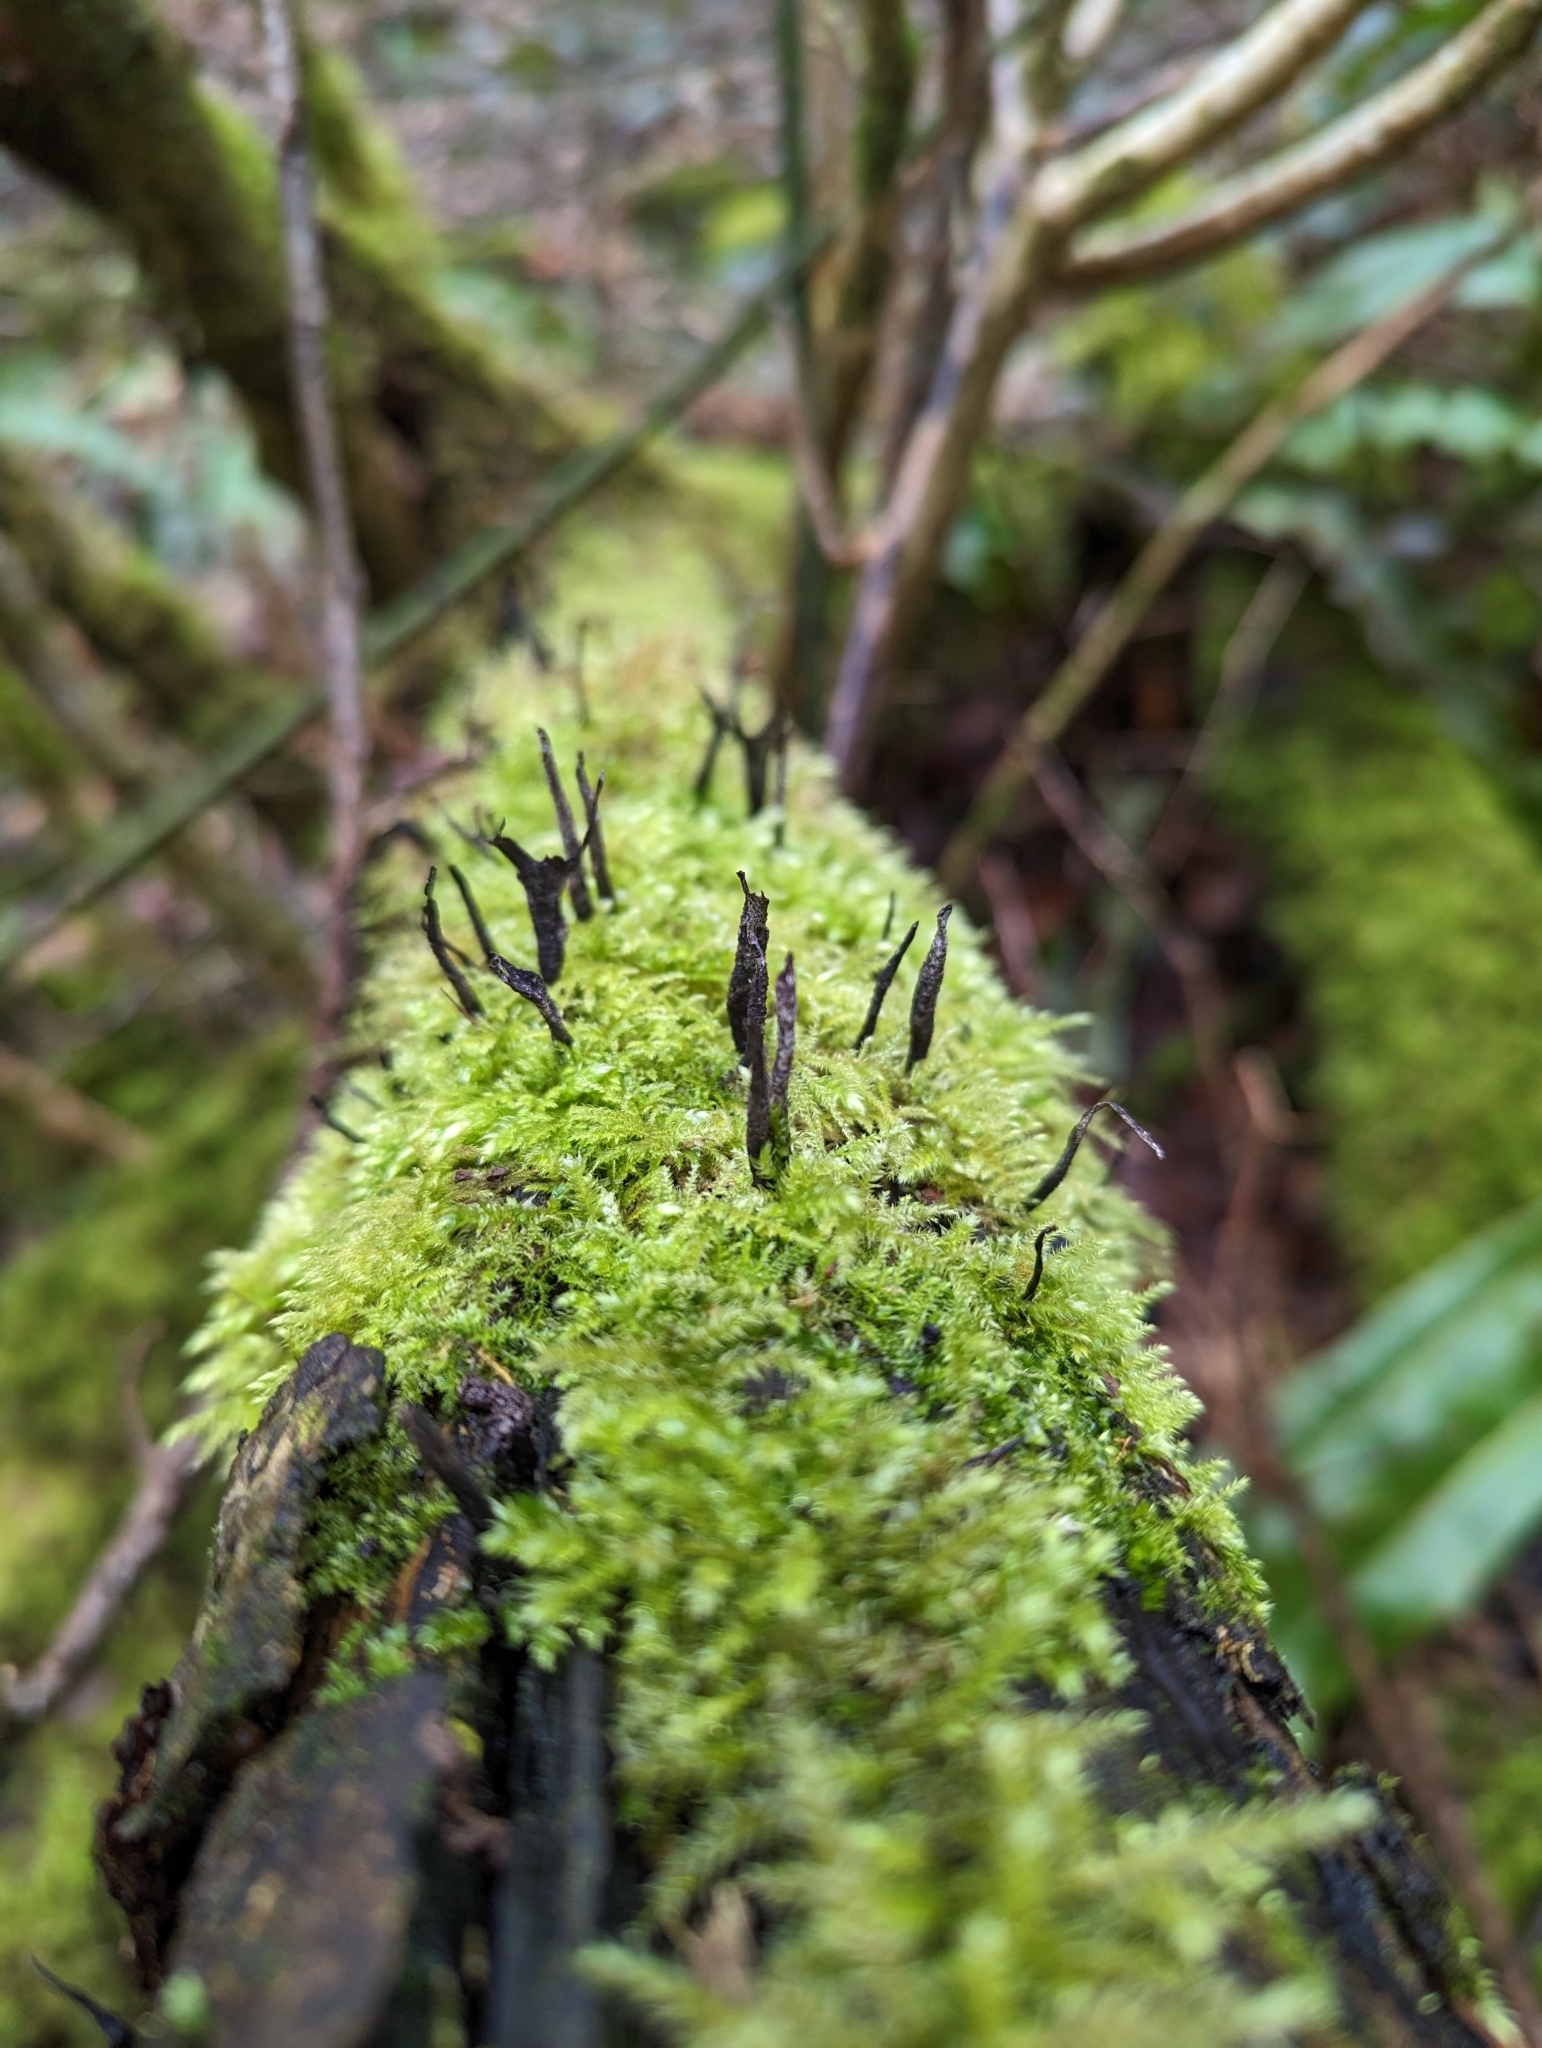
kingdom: Fungi
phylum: Ascomycota
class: Sordariomycetes
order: Xylariales
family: Xylariaceae
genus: Xylaria
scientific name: Xylaria hypoxylon
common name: Candle-snuff fungus
